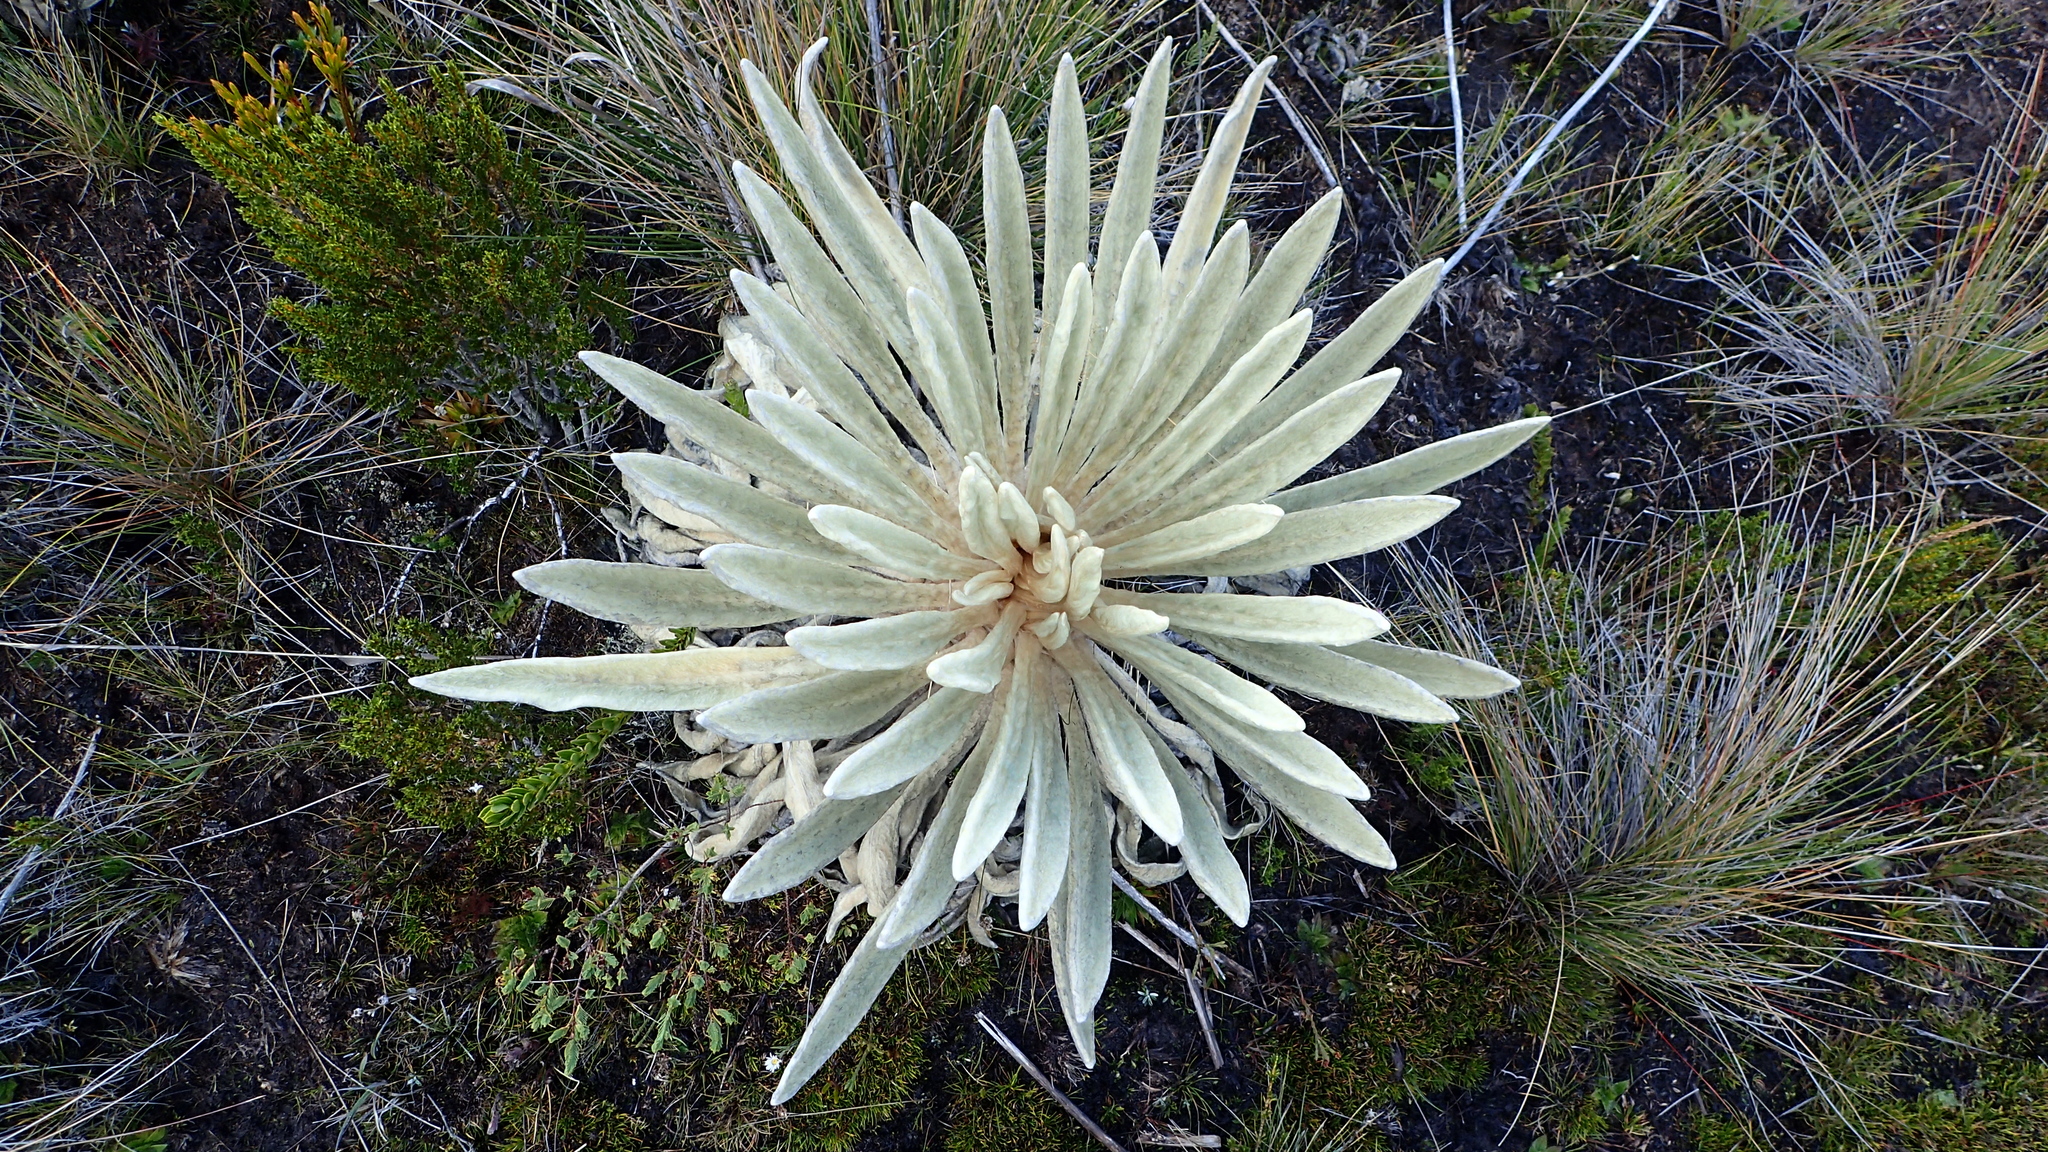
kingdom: Plantae
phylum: Tracheophyta
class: Magnoliopsida
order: Asterales
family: Asteraceae
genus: Espeletia
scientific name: Espeletia congestiflora
